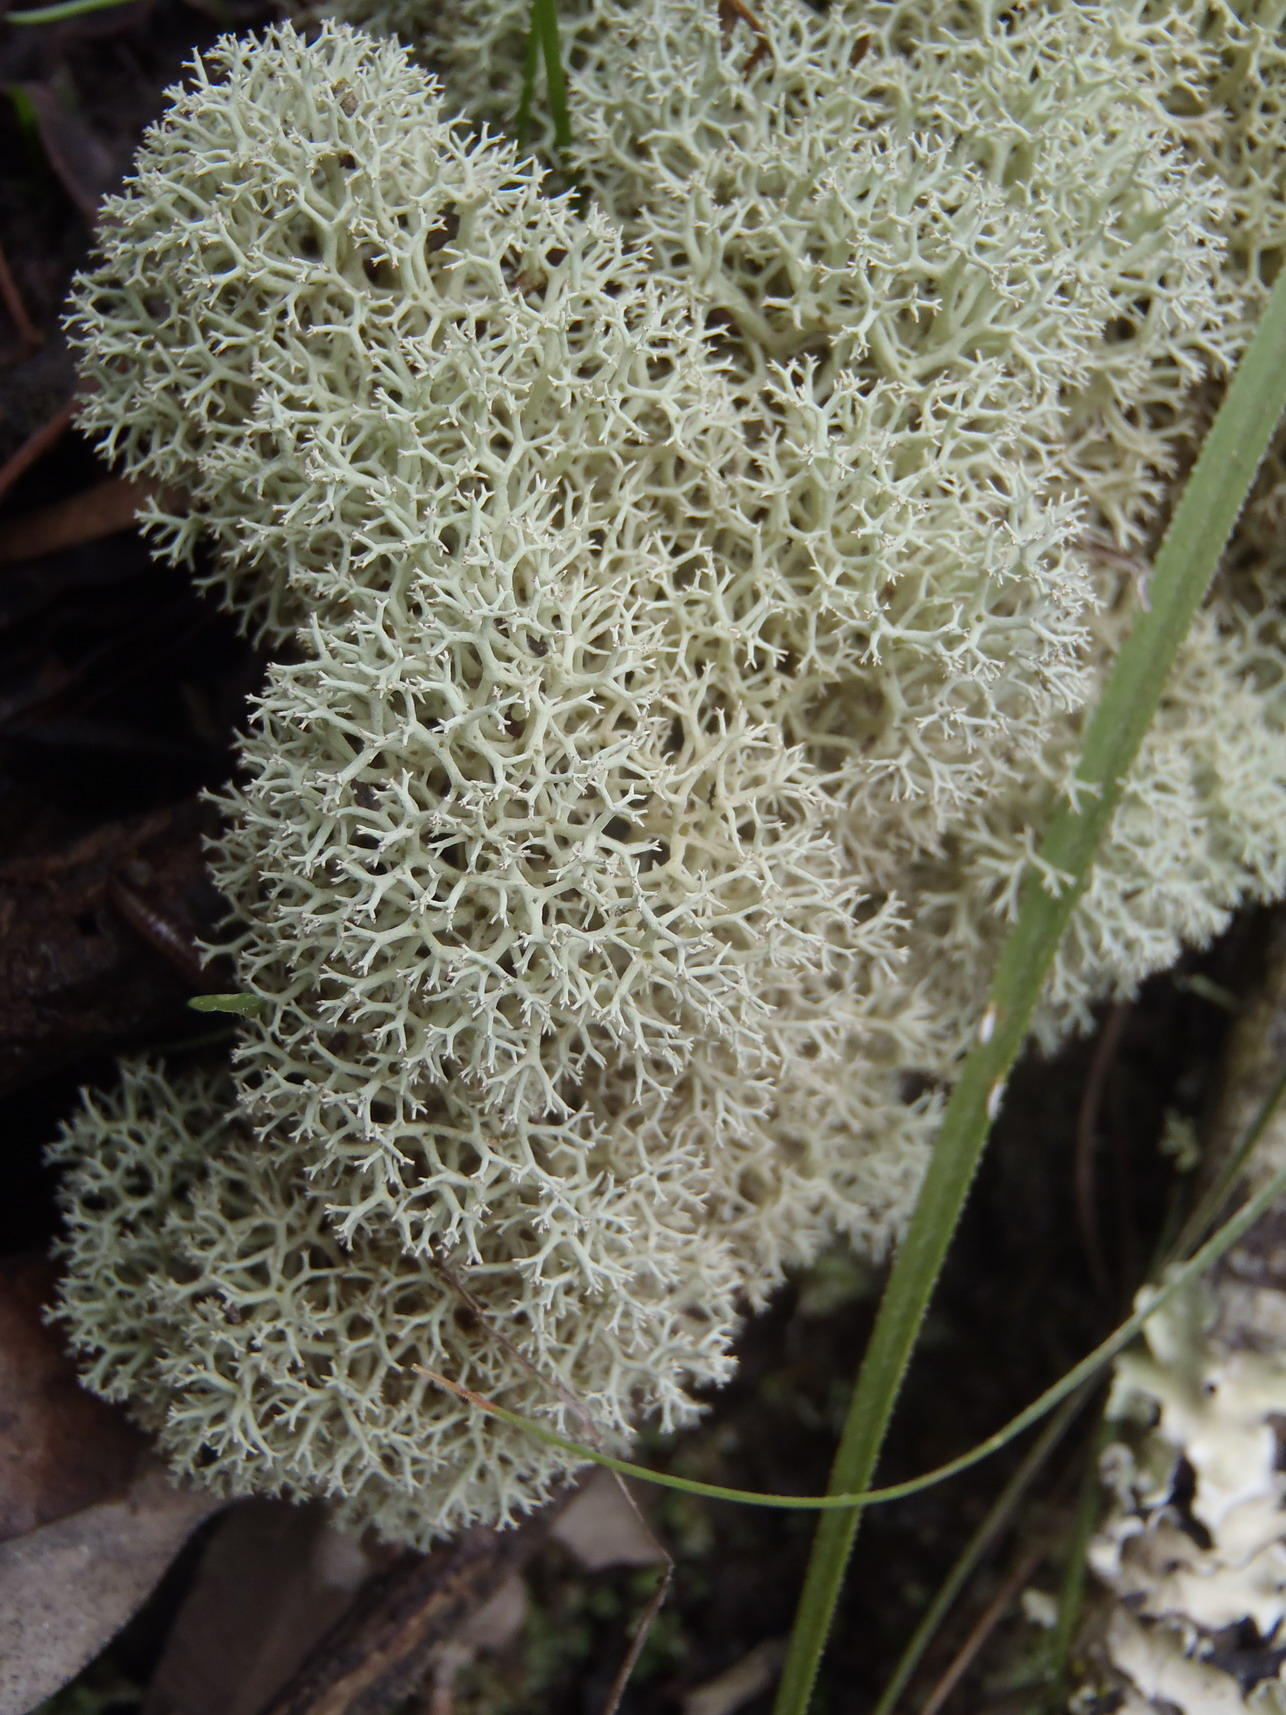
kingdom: Fungi
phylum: Ascomycota
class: Lecanoromycetes
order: Lecanorales
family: Cladoniaceae
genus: Cladonia
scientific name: Cladonia confusa
